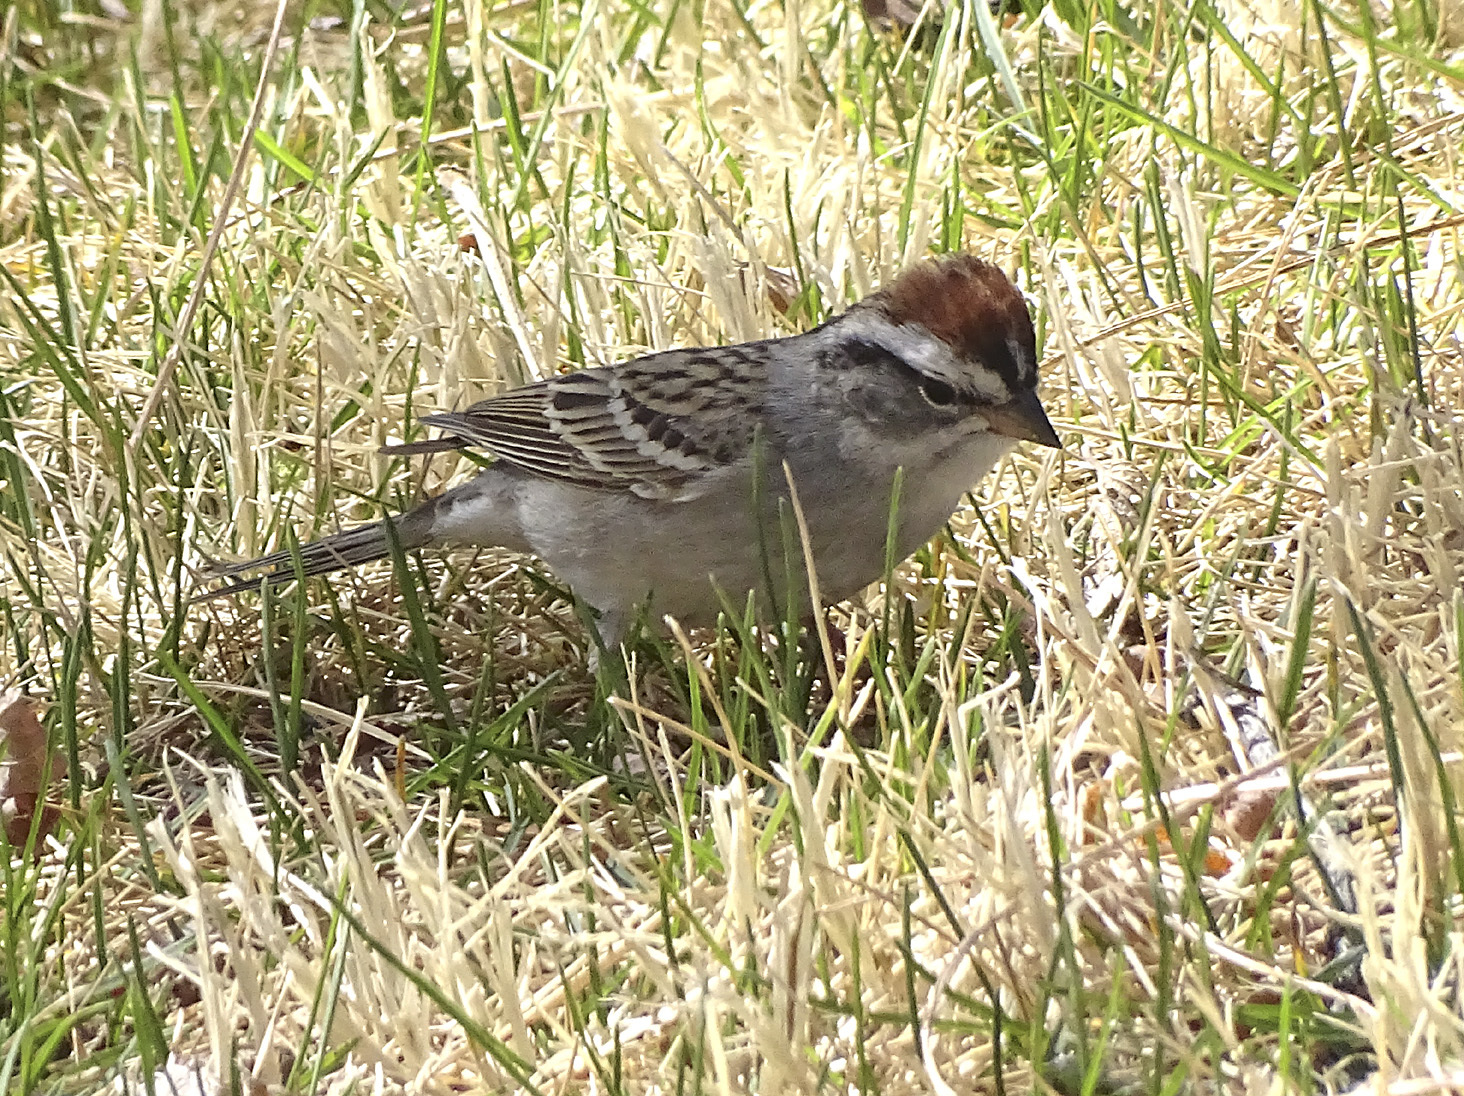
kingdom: Animalia
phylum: Chordata
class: Aves
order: Passeriformes
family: Passerellidae
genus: Spizella
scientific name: Spizella passerina
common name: Chipping sparrow
